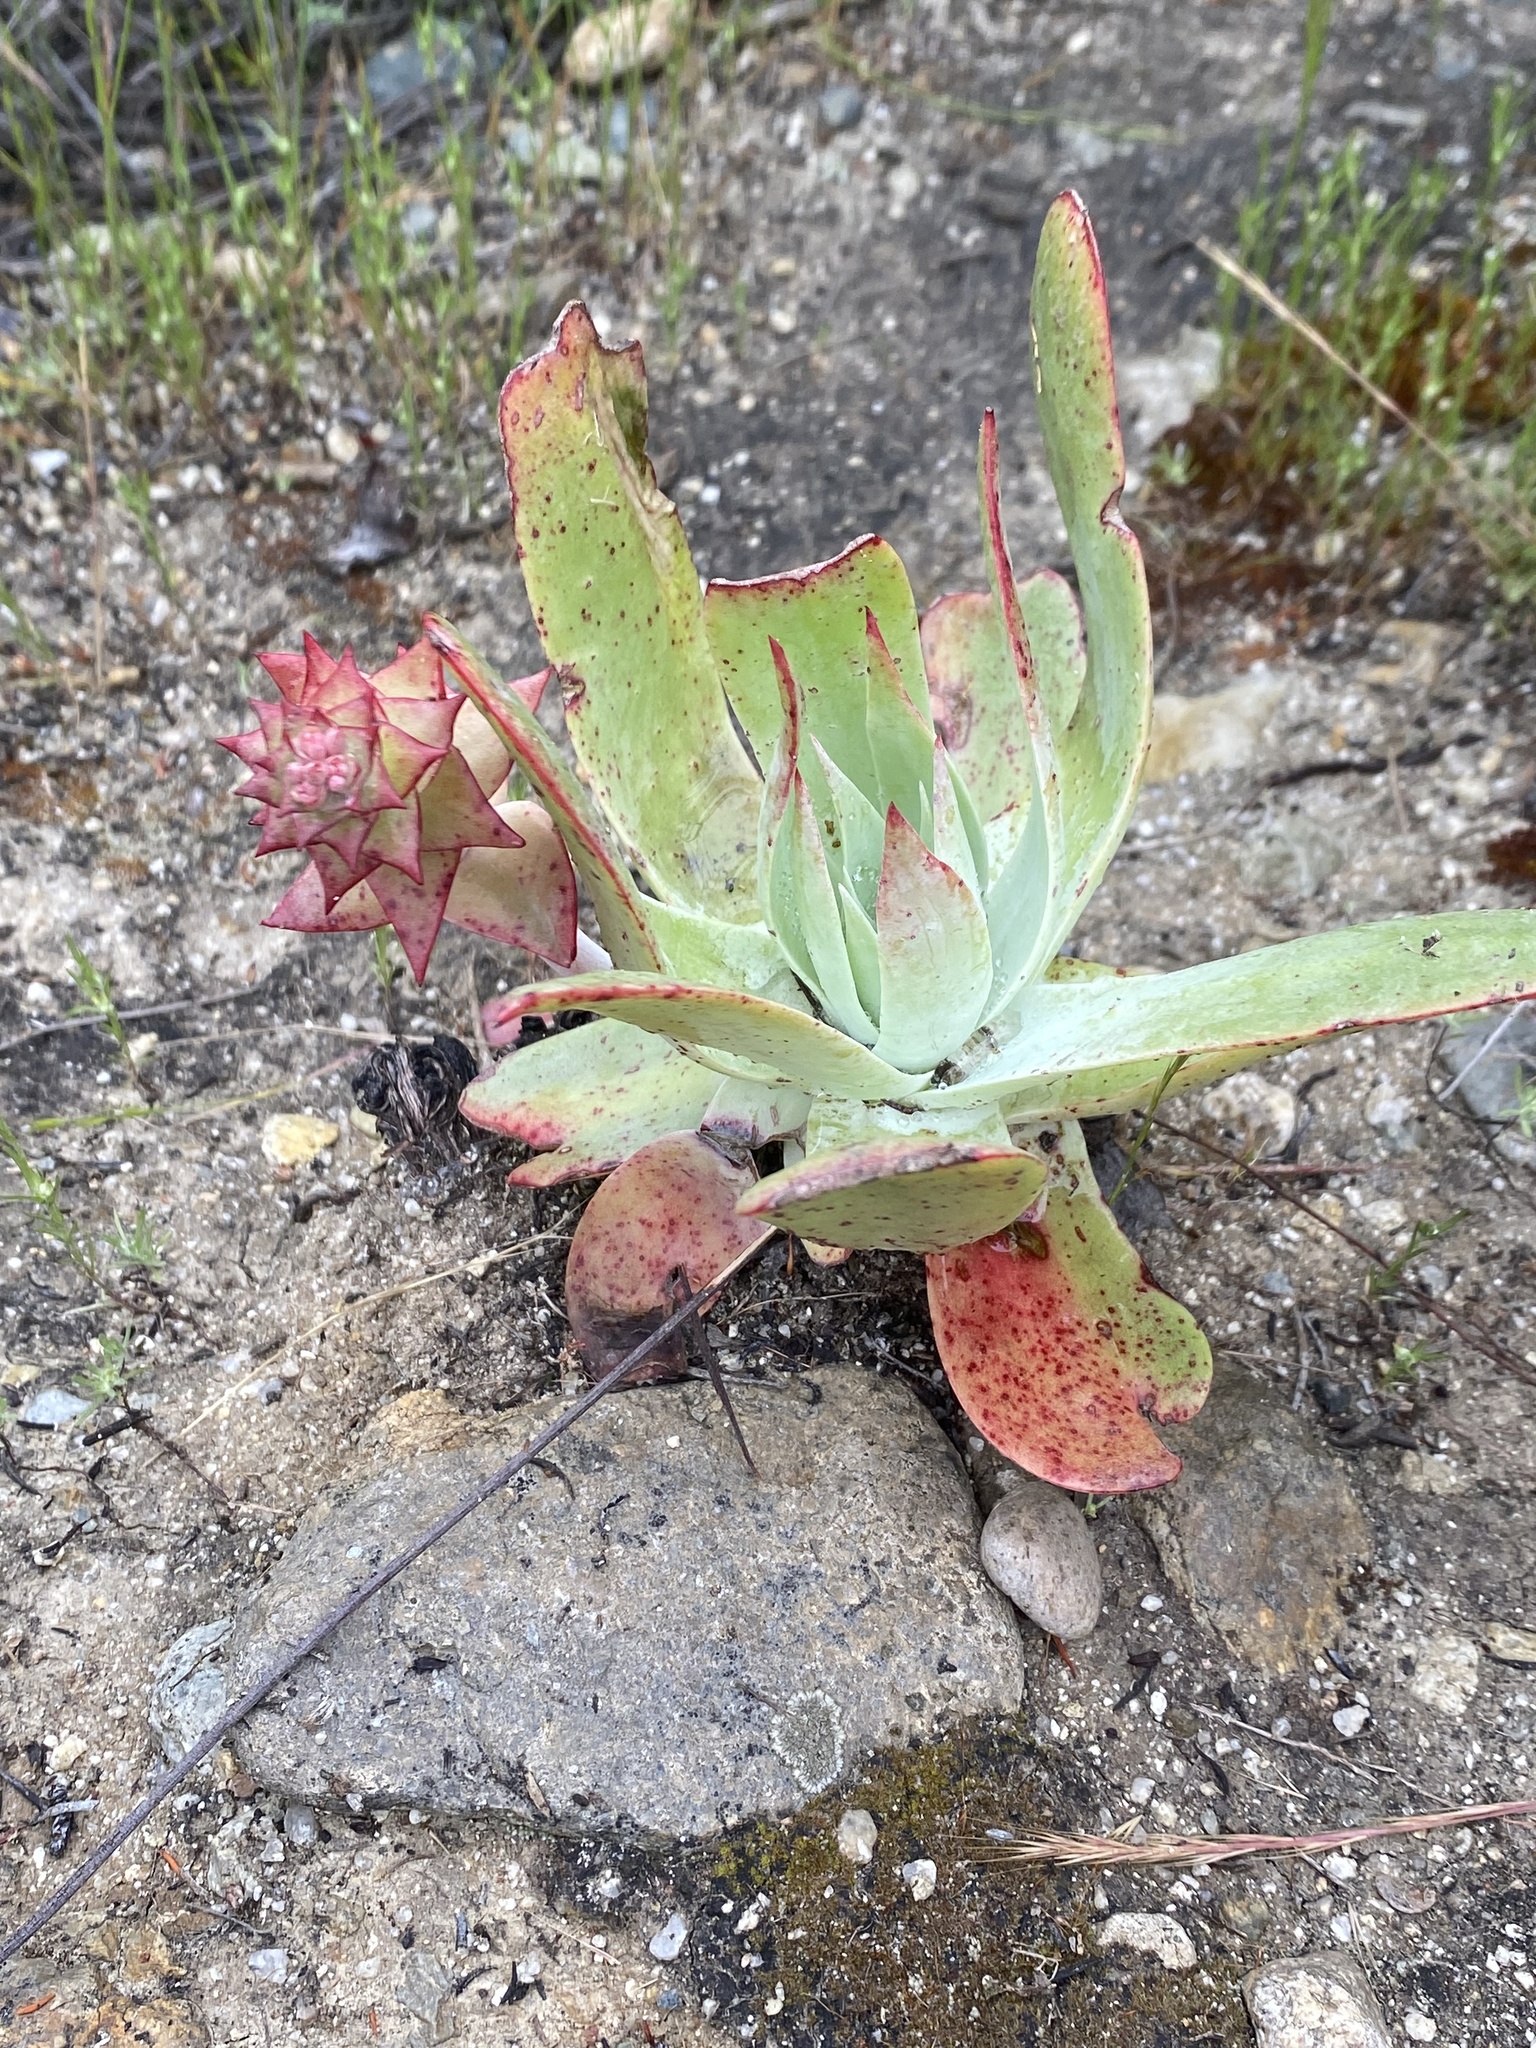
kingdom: Plantae
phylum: Tracheophyta
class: Magnoliopsida
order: Saxifragales
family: Crassulaceae
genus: Dudleya
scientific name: Dudleya pulverulenta
